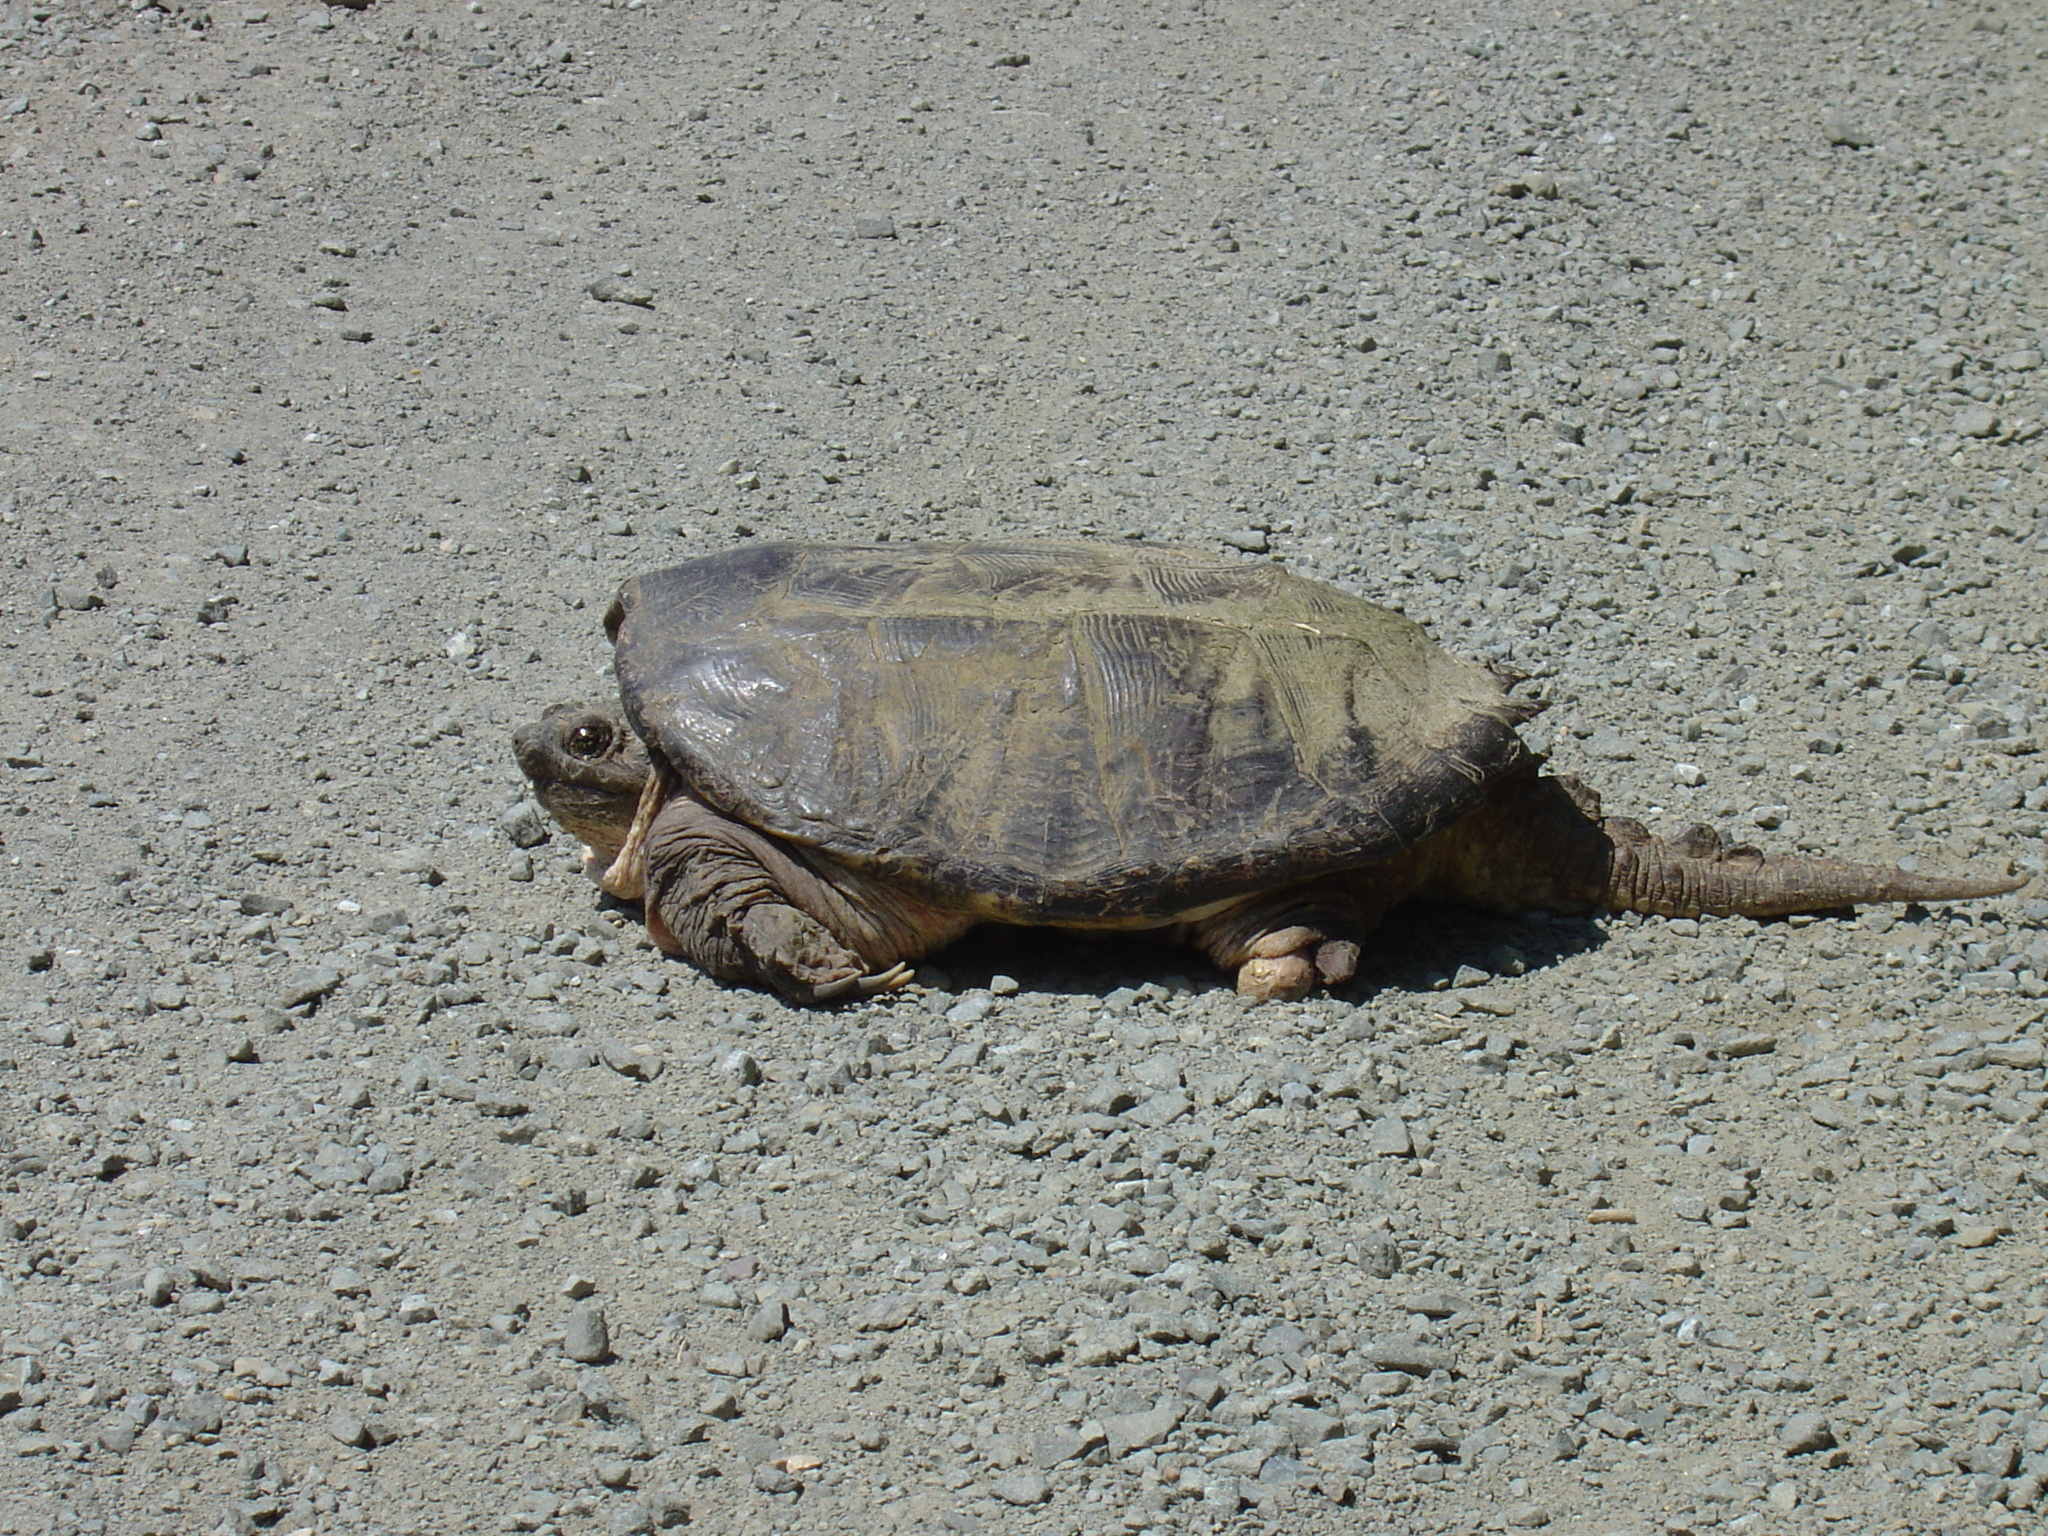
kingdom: Animalia
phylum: Chordata
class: Testudines
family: Chelydridae
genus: Chelydra
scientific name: Chelydra serpentina
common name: Common snapping turtle
